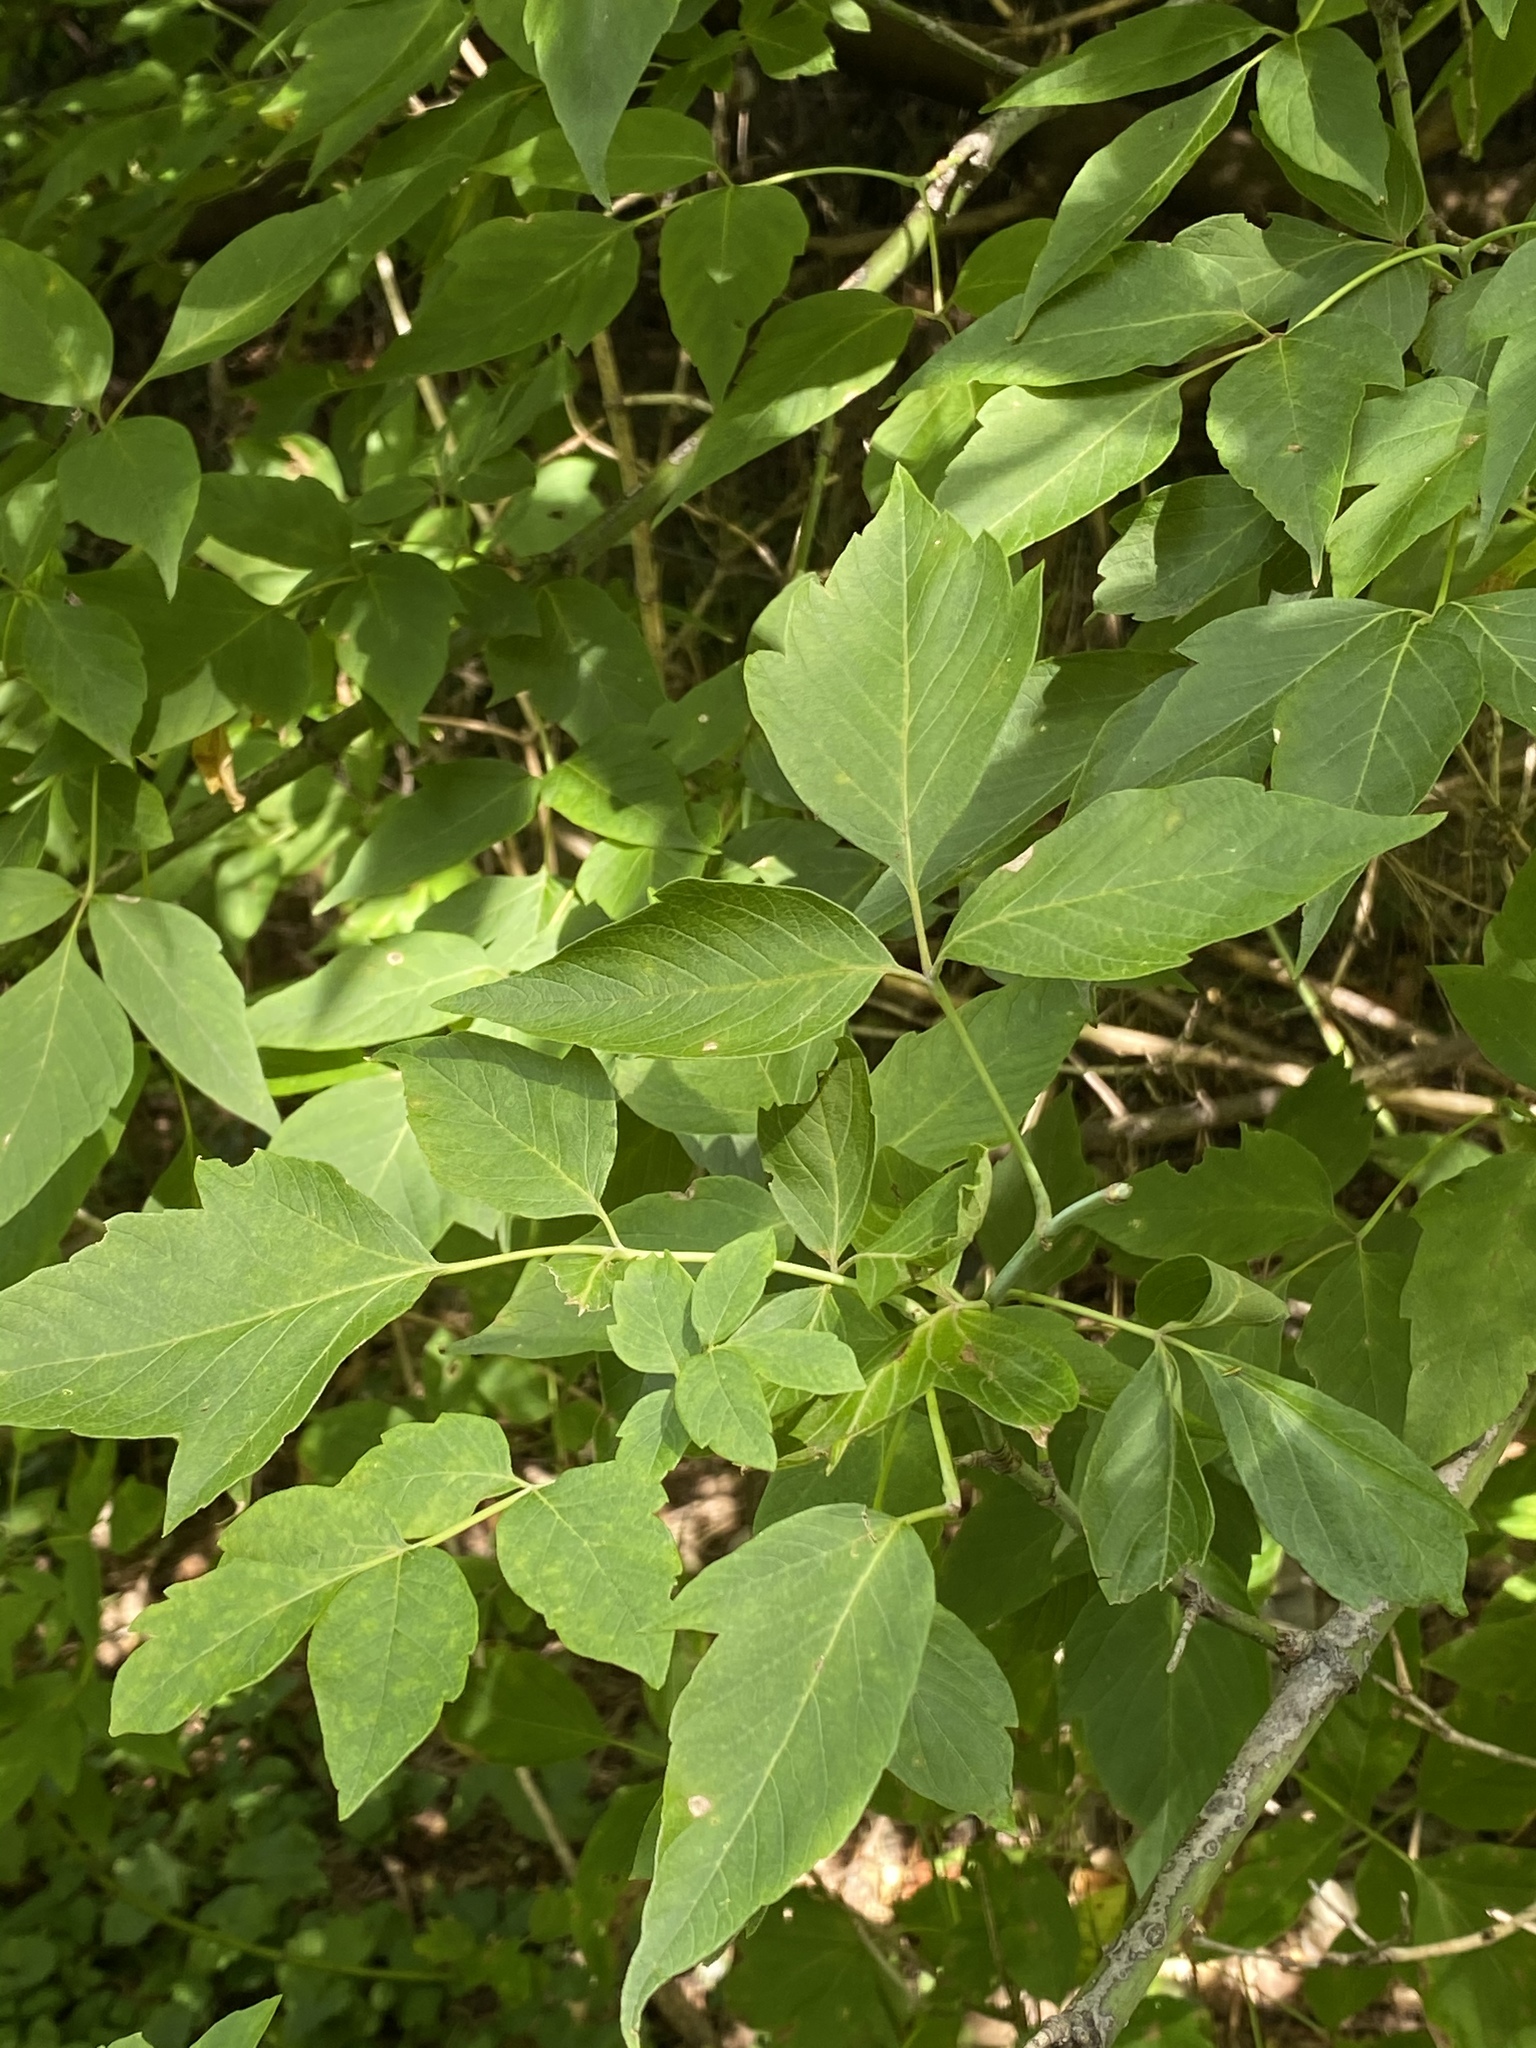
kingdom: Plantae
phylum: Tracheophyta
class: Magnoliopsida
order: Sapindales
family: Sapindaceae
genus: Acer
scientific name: Acer negundo
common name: Ashleaf maple
